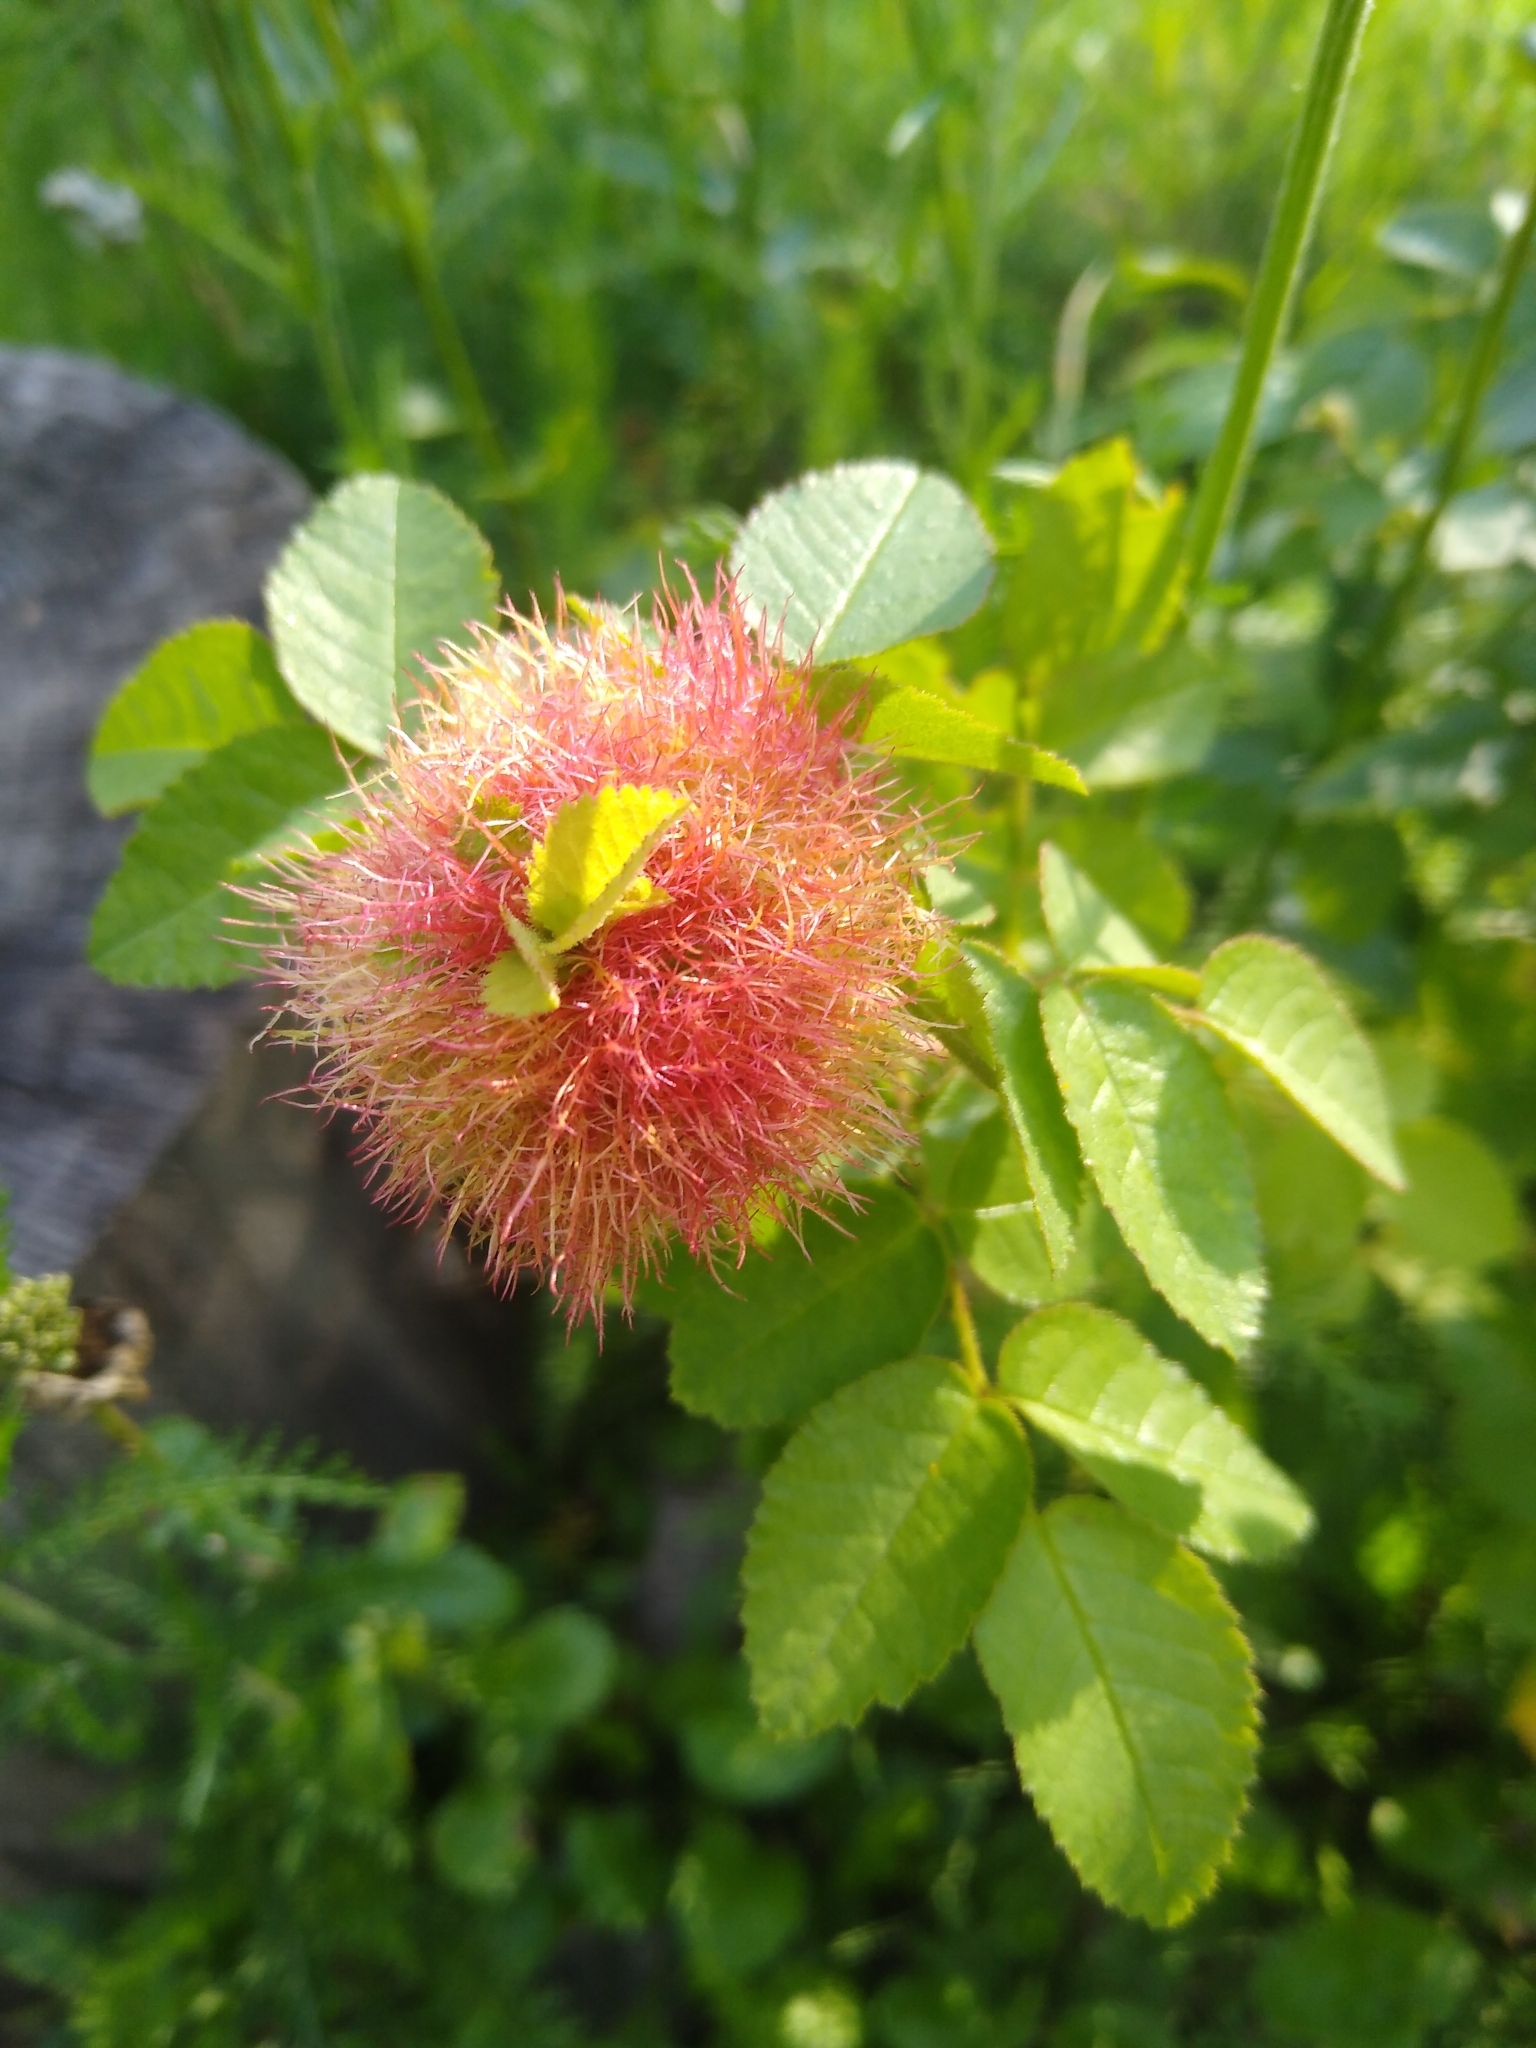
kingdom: Animalia
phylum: Arthropoda
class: Insecta
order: Hymenoptera
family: Cynipidae
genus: Diplolepis
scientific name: Diplolepis rosae
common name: Bedeguar gall
